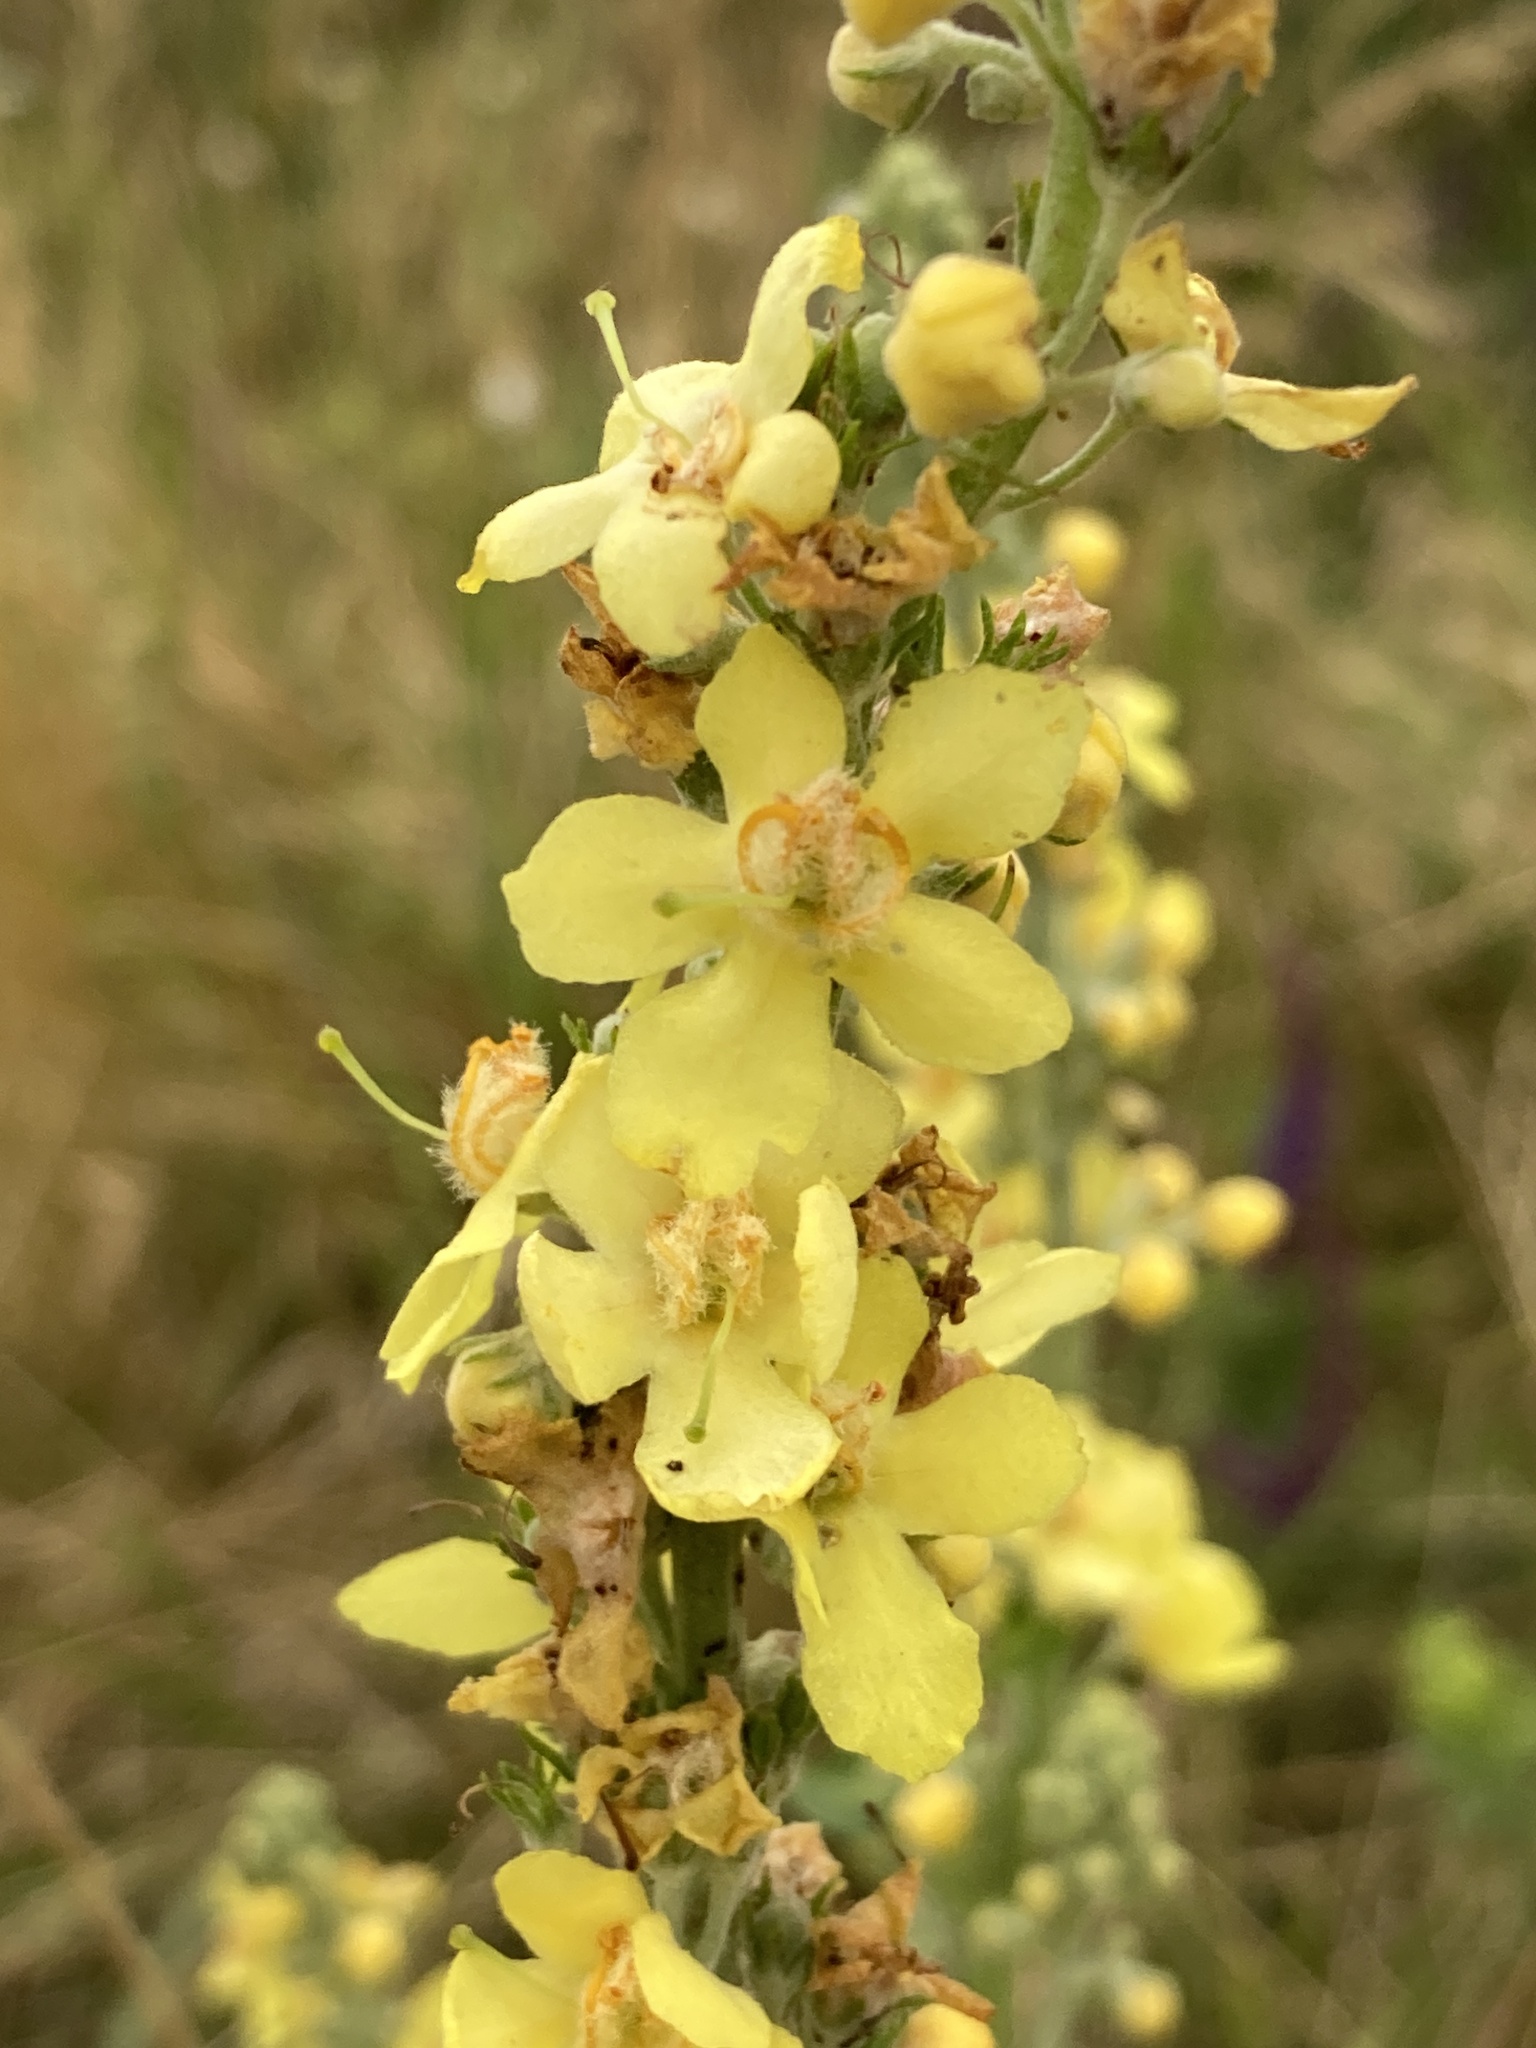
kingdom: Plantae
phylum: Tracheophyta
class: Magnoliopsida
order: Lamiales
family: Scrophulariaceae
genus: Verbascum
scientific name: Verbascum lychnitis
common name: White mullein
